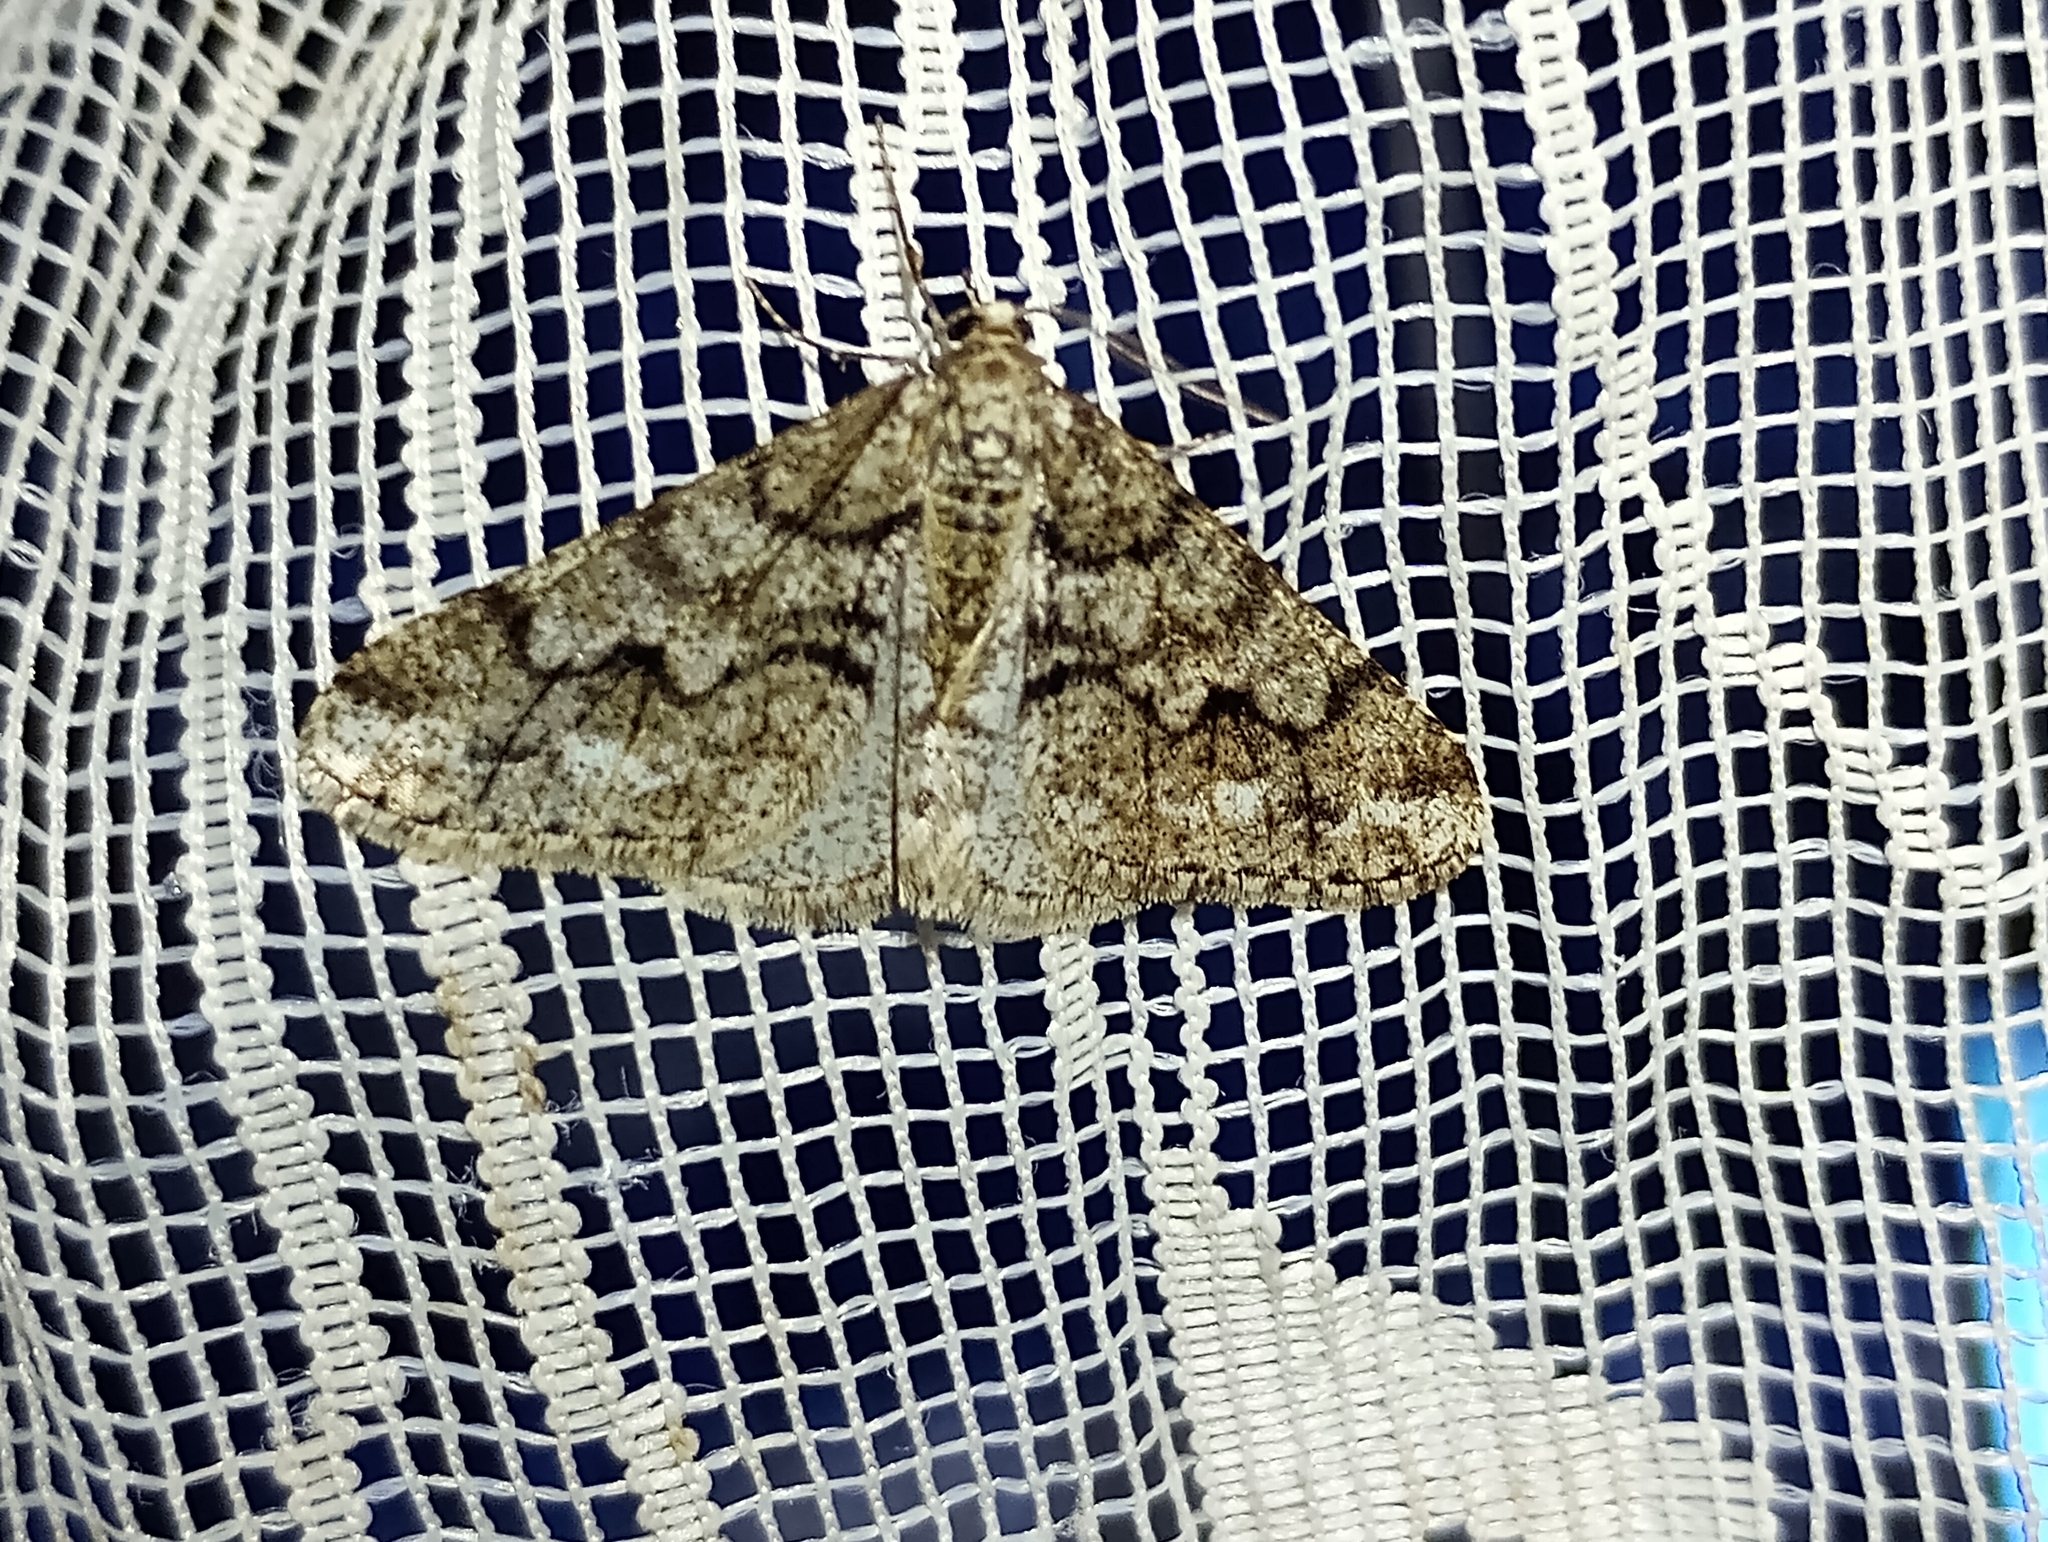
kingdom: Animalia
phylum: Arthropoda
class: Insecta
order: Lepidoptera
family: Geometridae
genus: Agriopis
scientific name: Agriopis leucophaearia
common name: Spring usher
